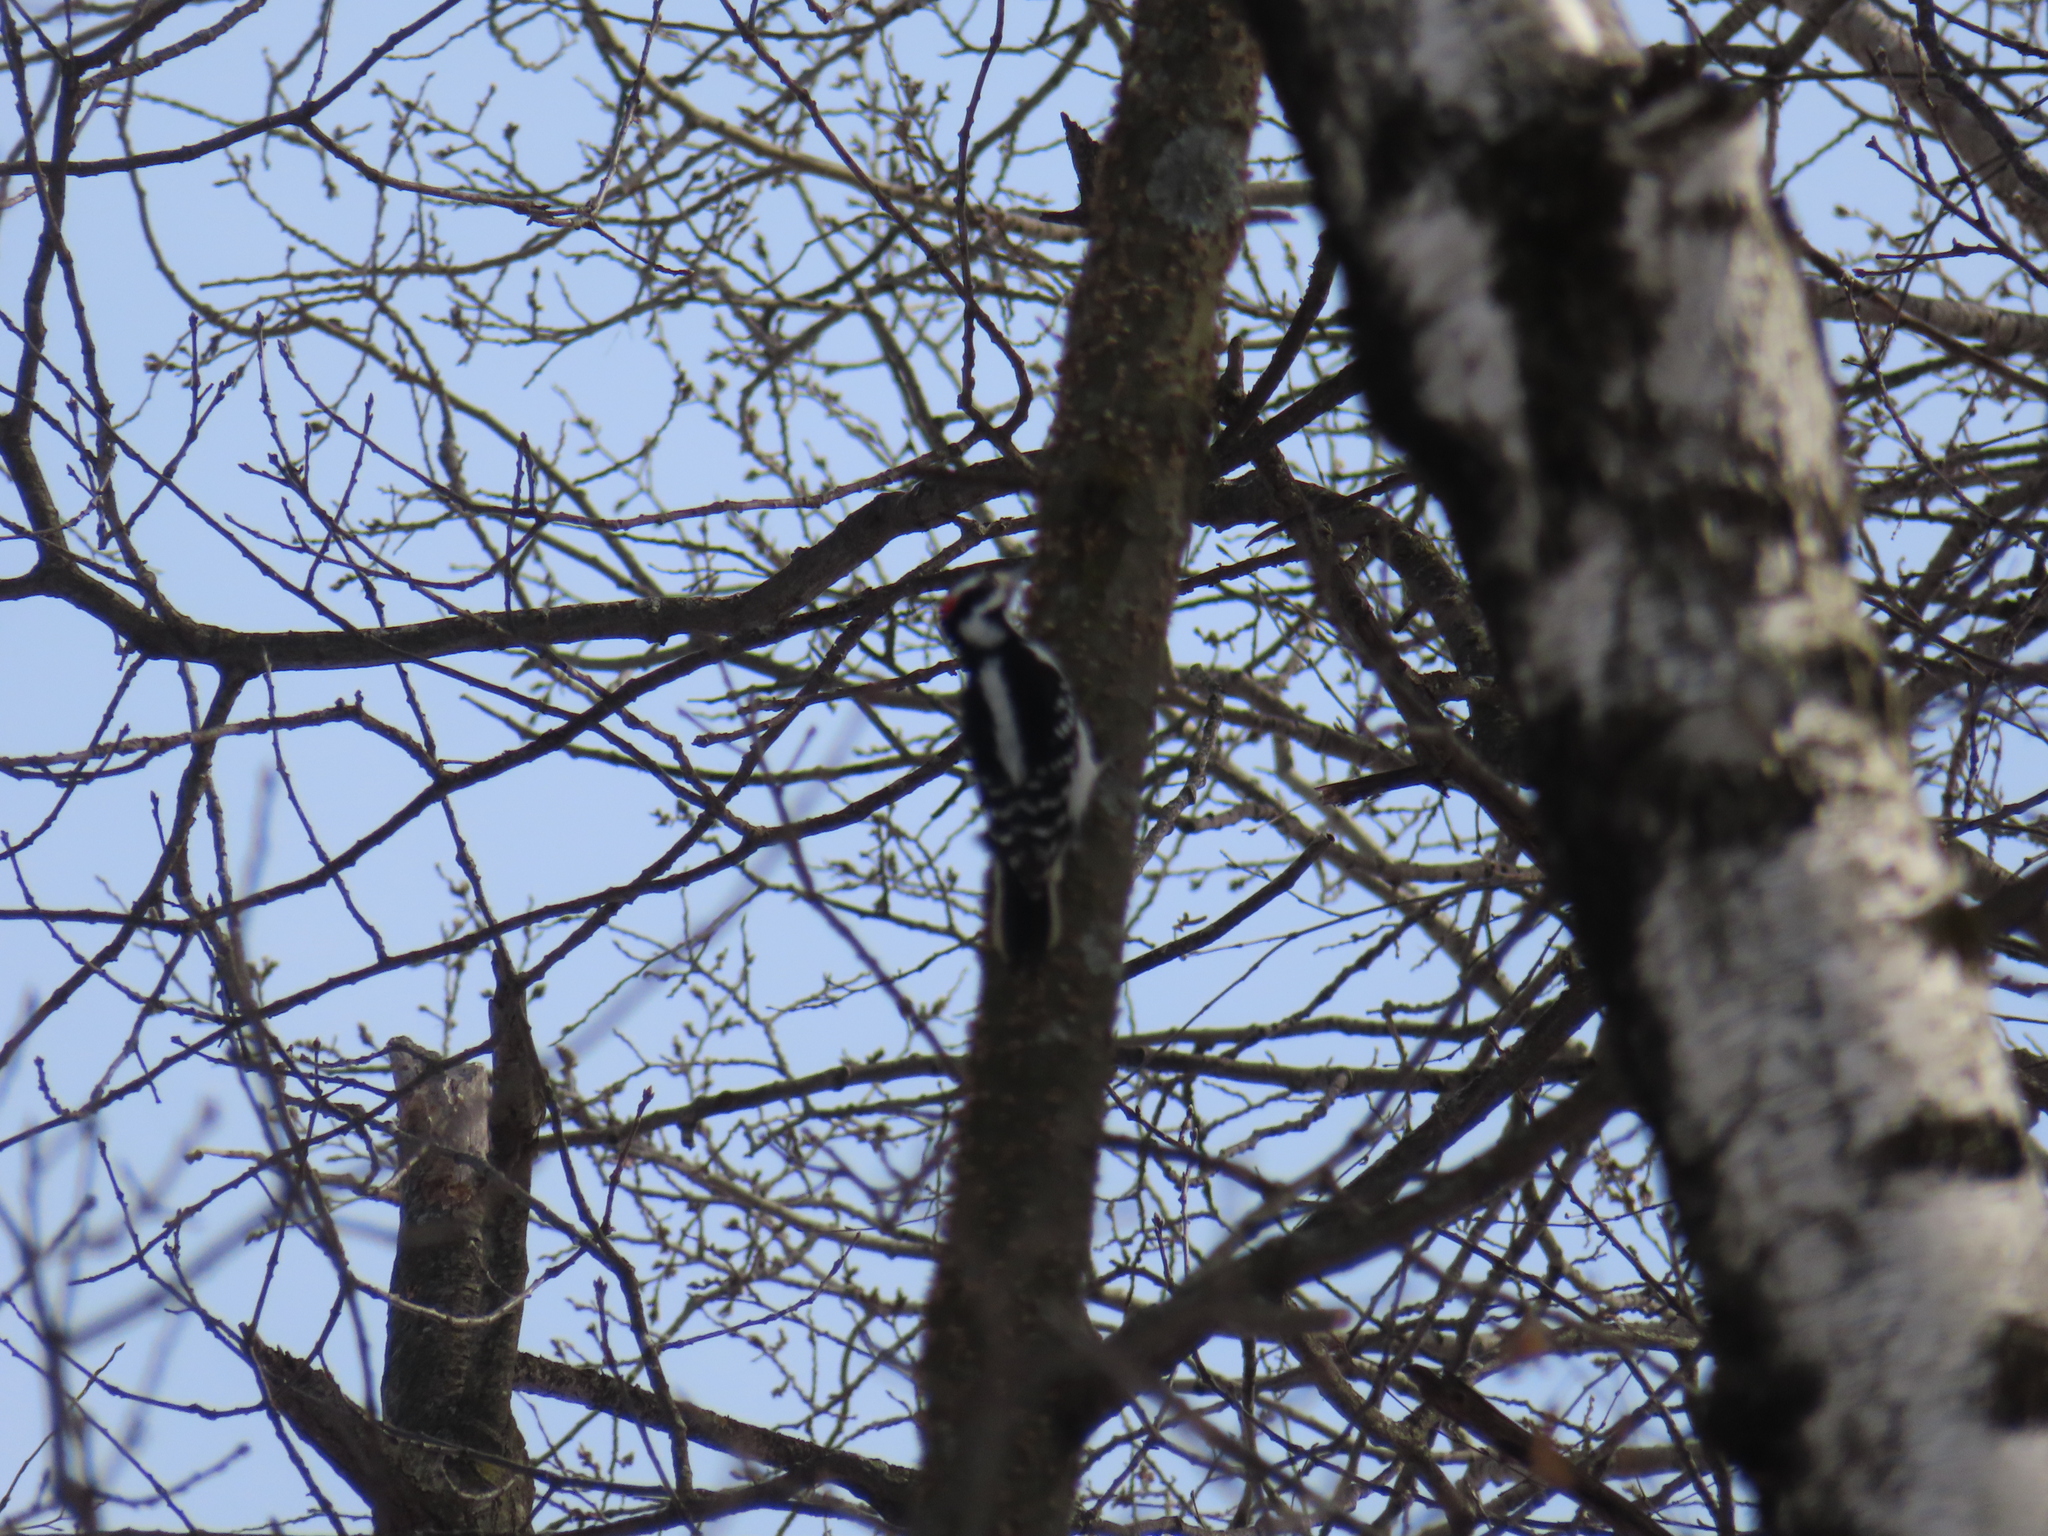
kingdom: Animalia
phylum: Chordata
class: Aves
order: Piciformes
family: Picidae
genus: Leuconotopicus
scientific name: Leuconotopicus villosus
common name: Hairy woodpecker
